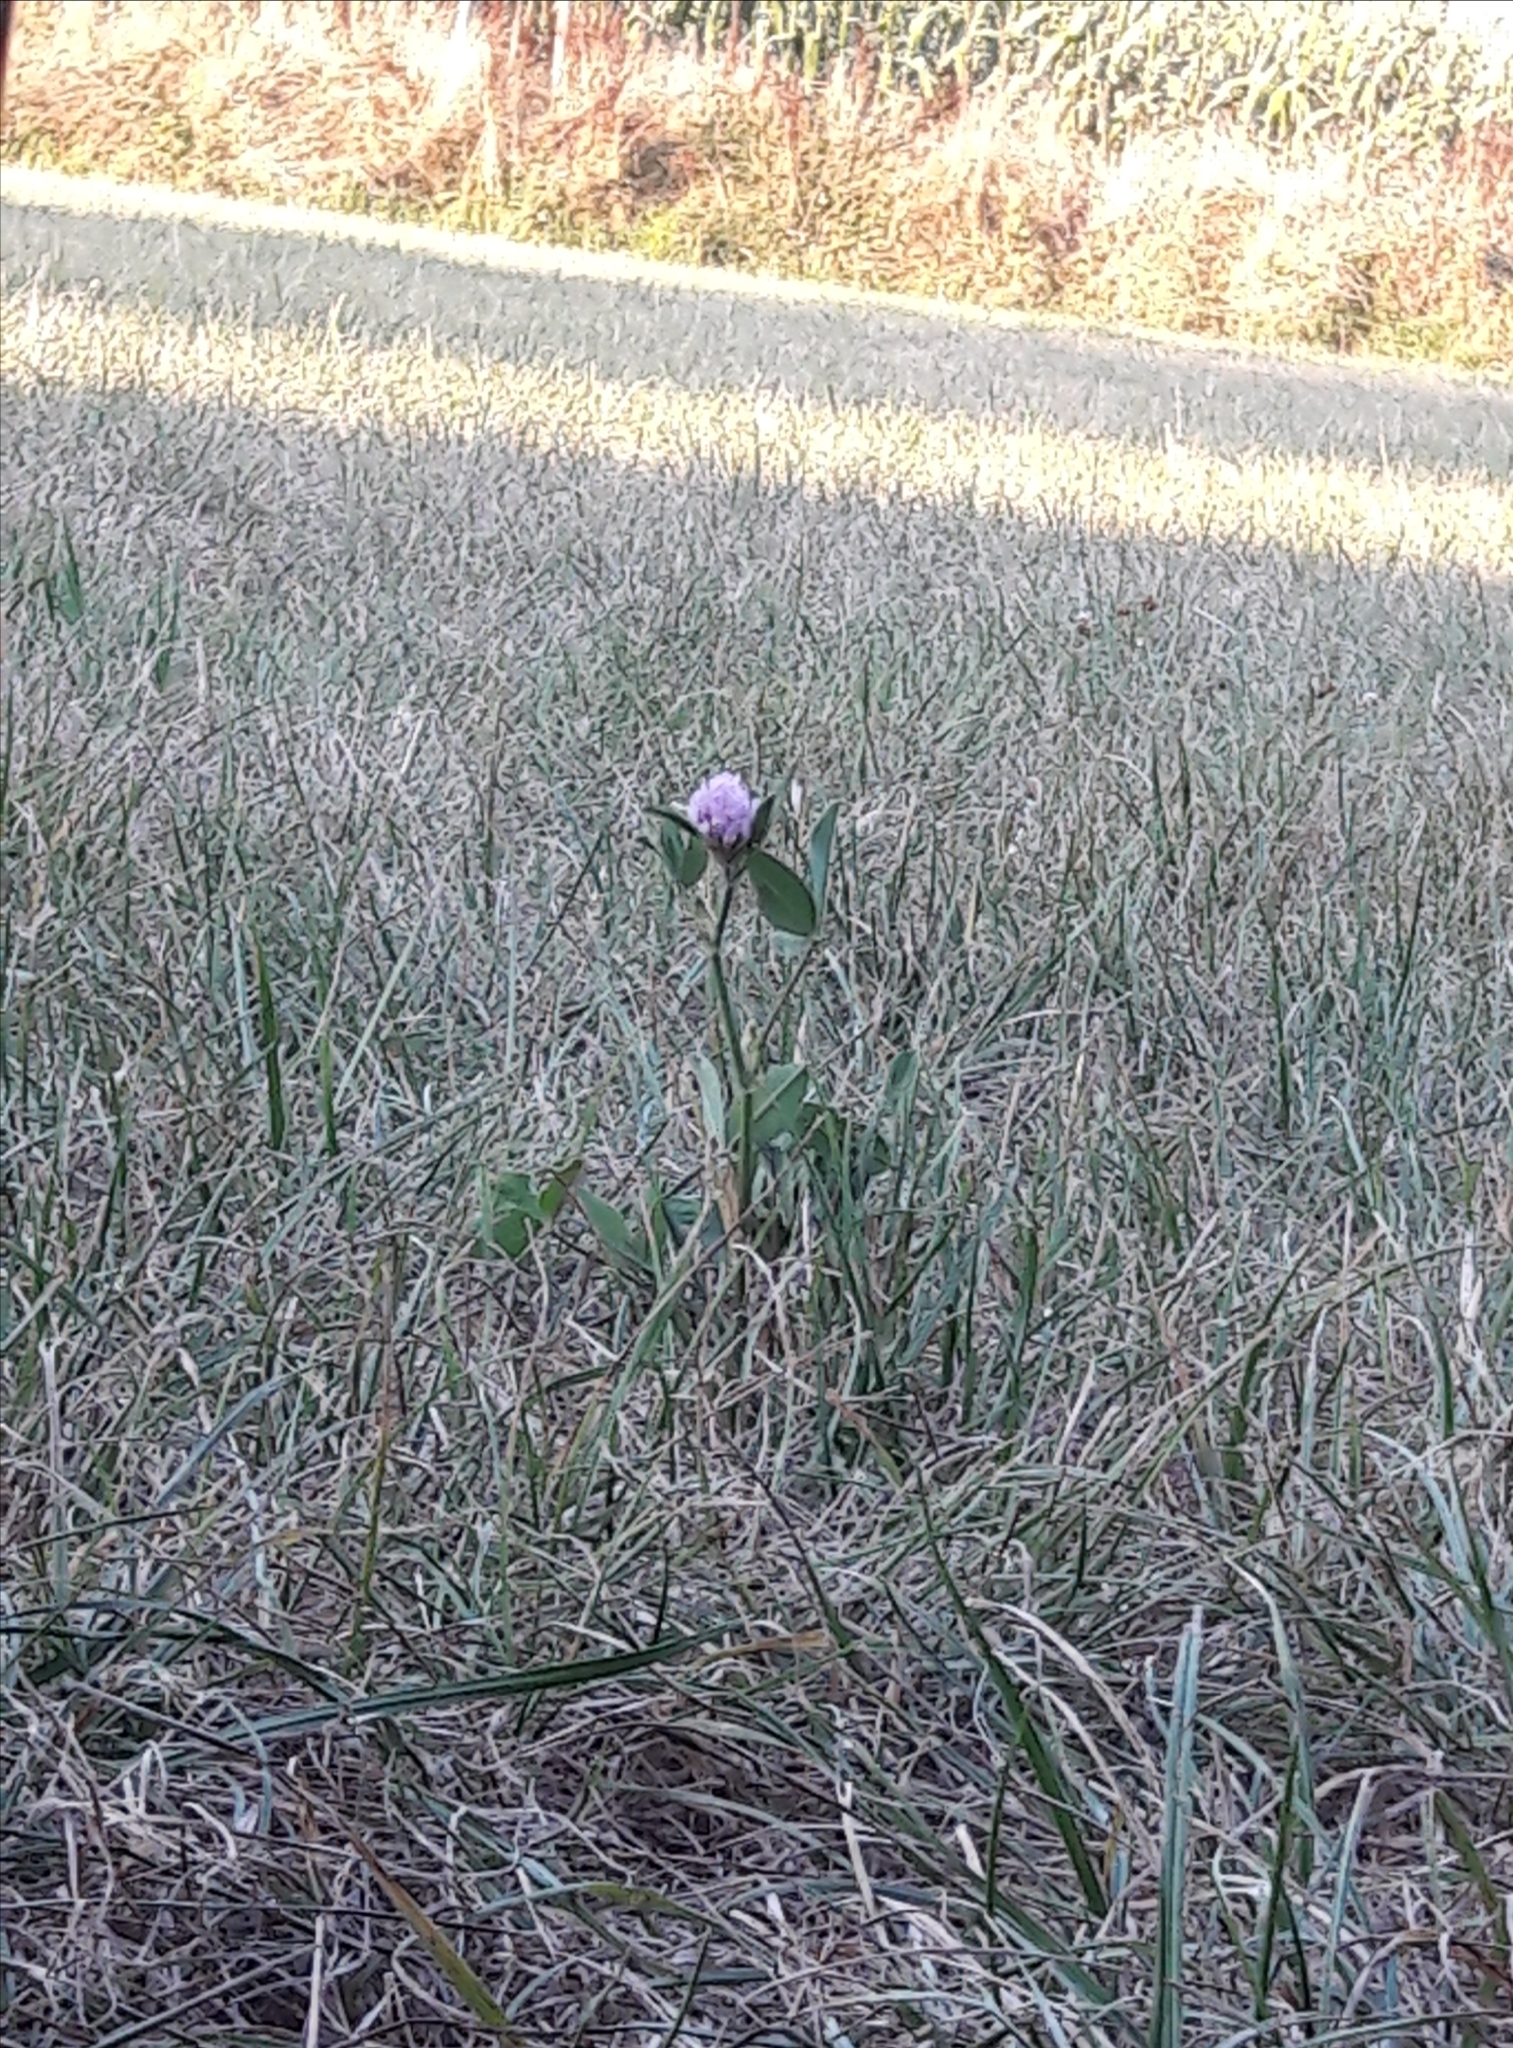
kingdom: Plantae
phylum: Tracheophyta
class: Magnoliopsida
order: Fabales
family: Fabaceae
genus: Trifolium
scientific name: Trifolium pratense
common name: Red clover
